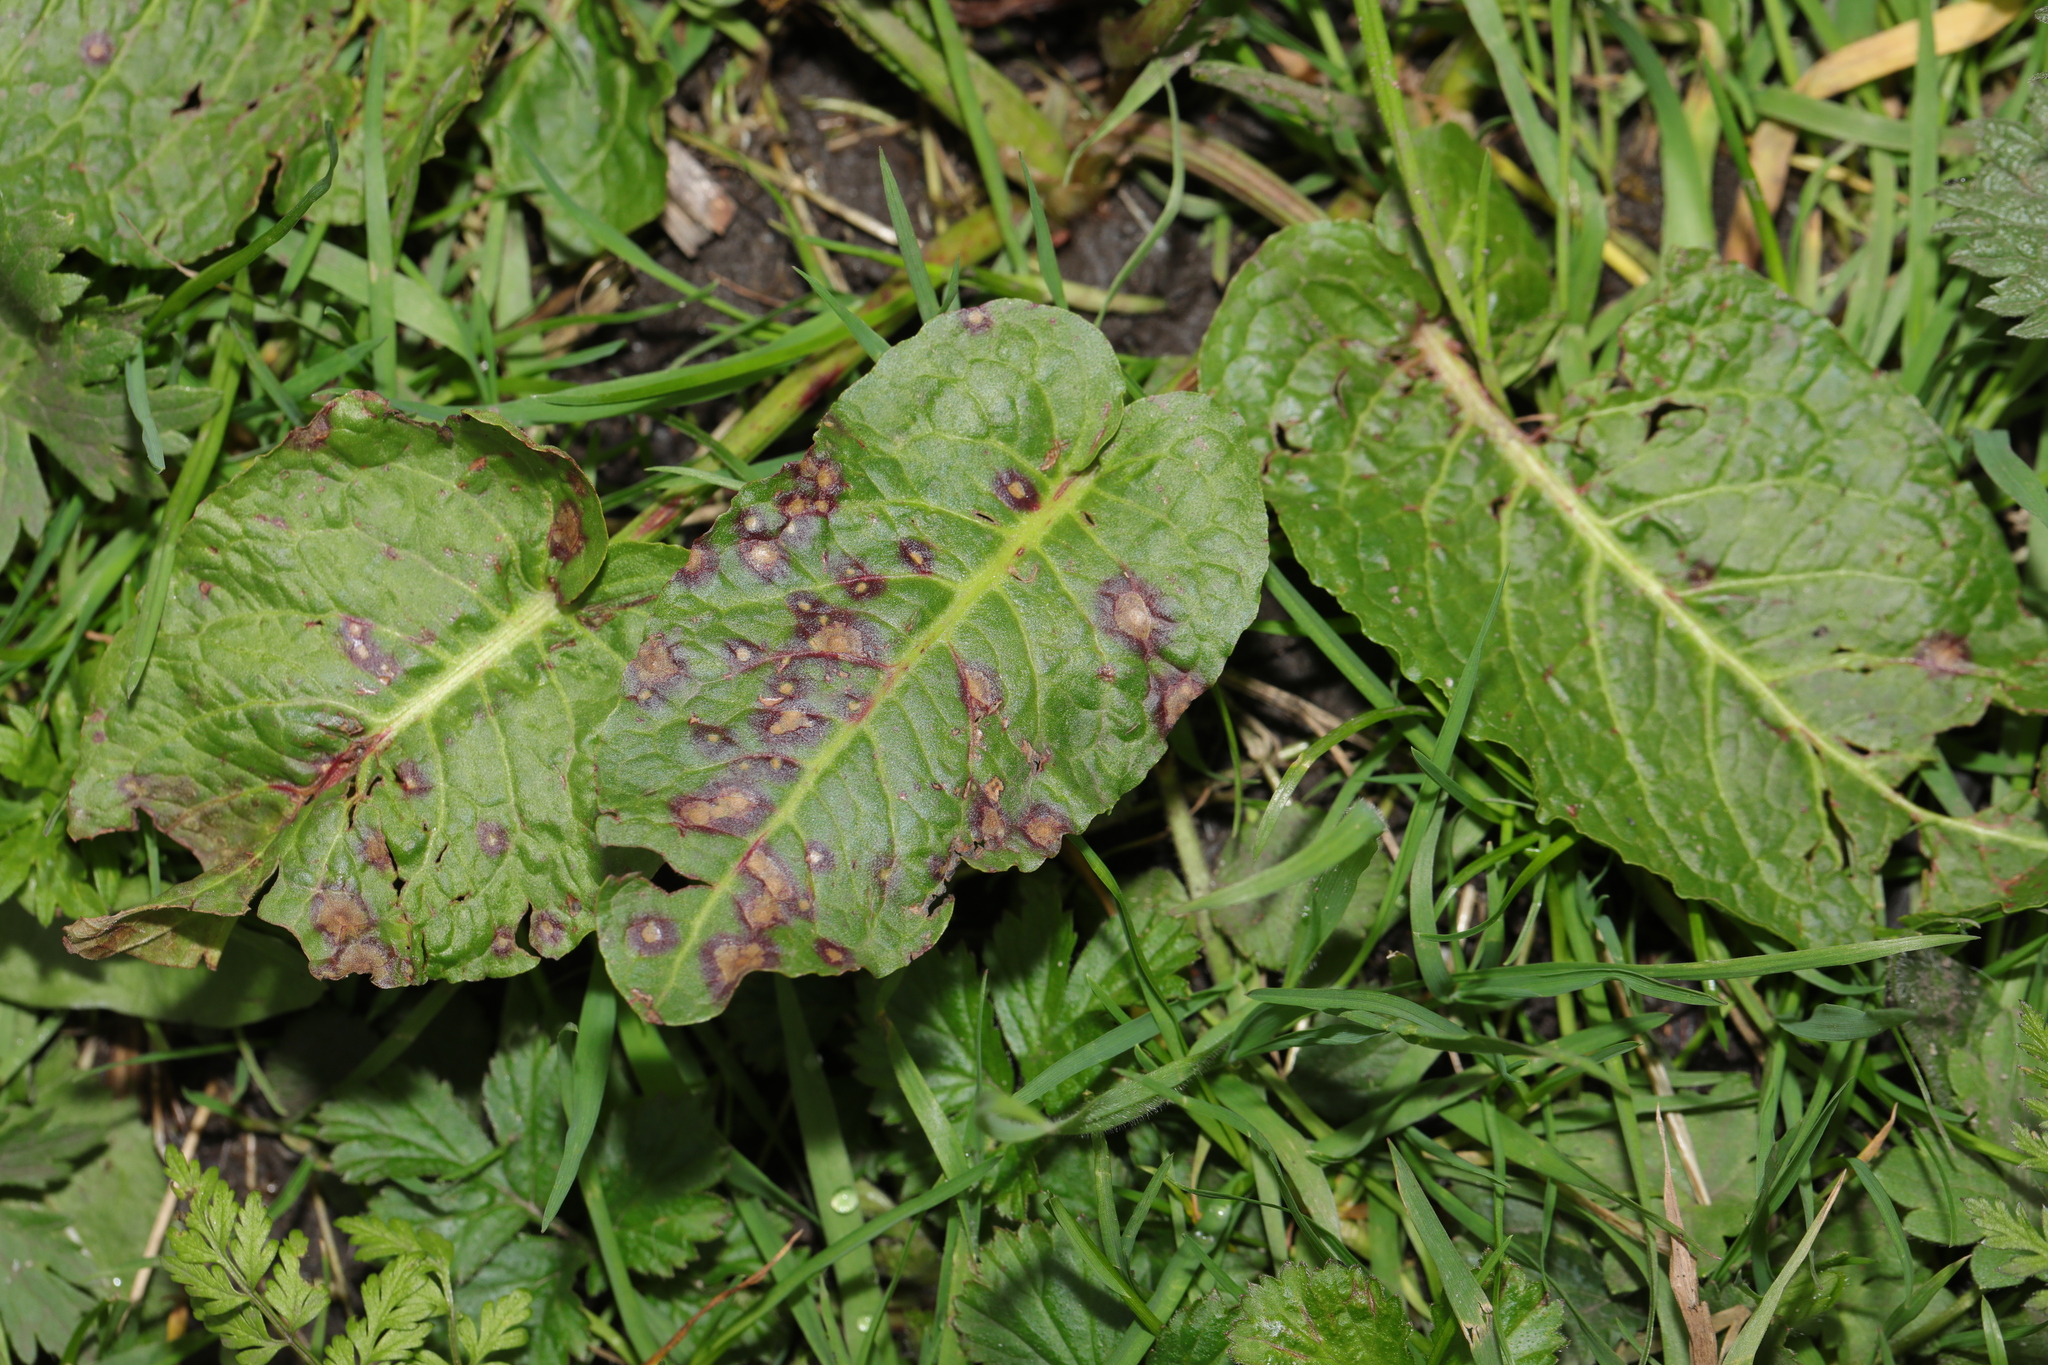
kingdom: Plantae
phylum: Tracheophyta
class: Magnoliopsida
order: Caryophyllales
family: Polygonaceae
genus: Rumex
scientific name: Rumex obtusifolius
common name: Bitter dock
